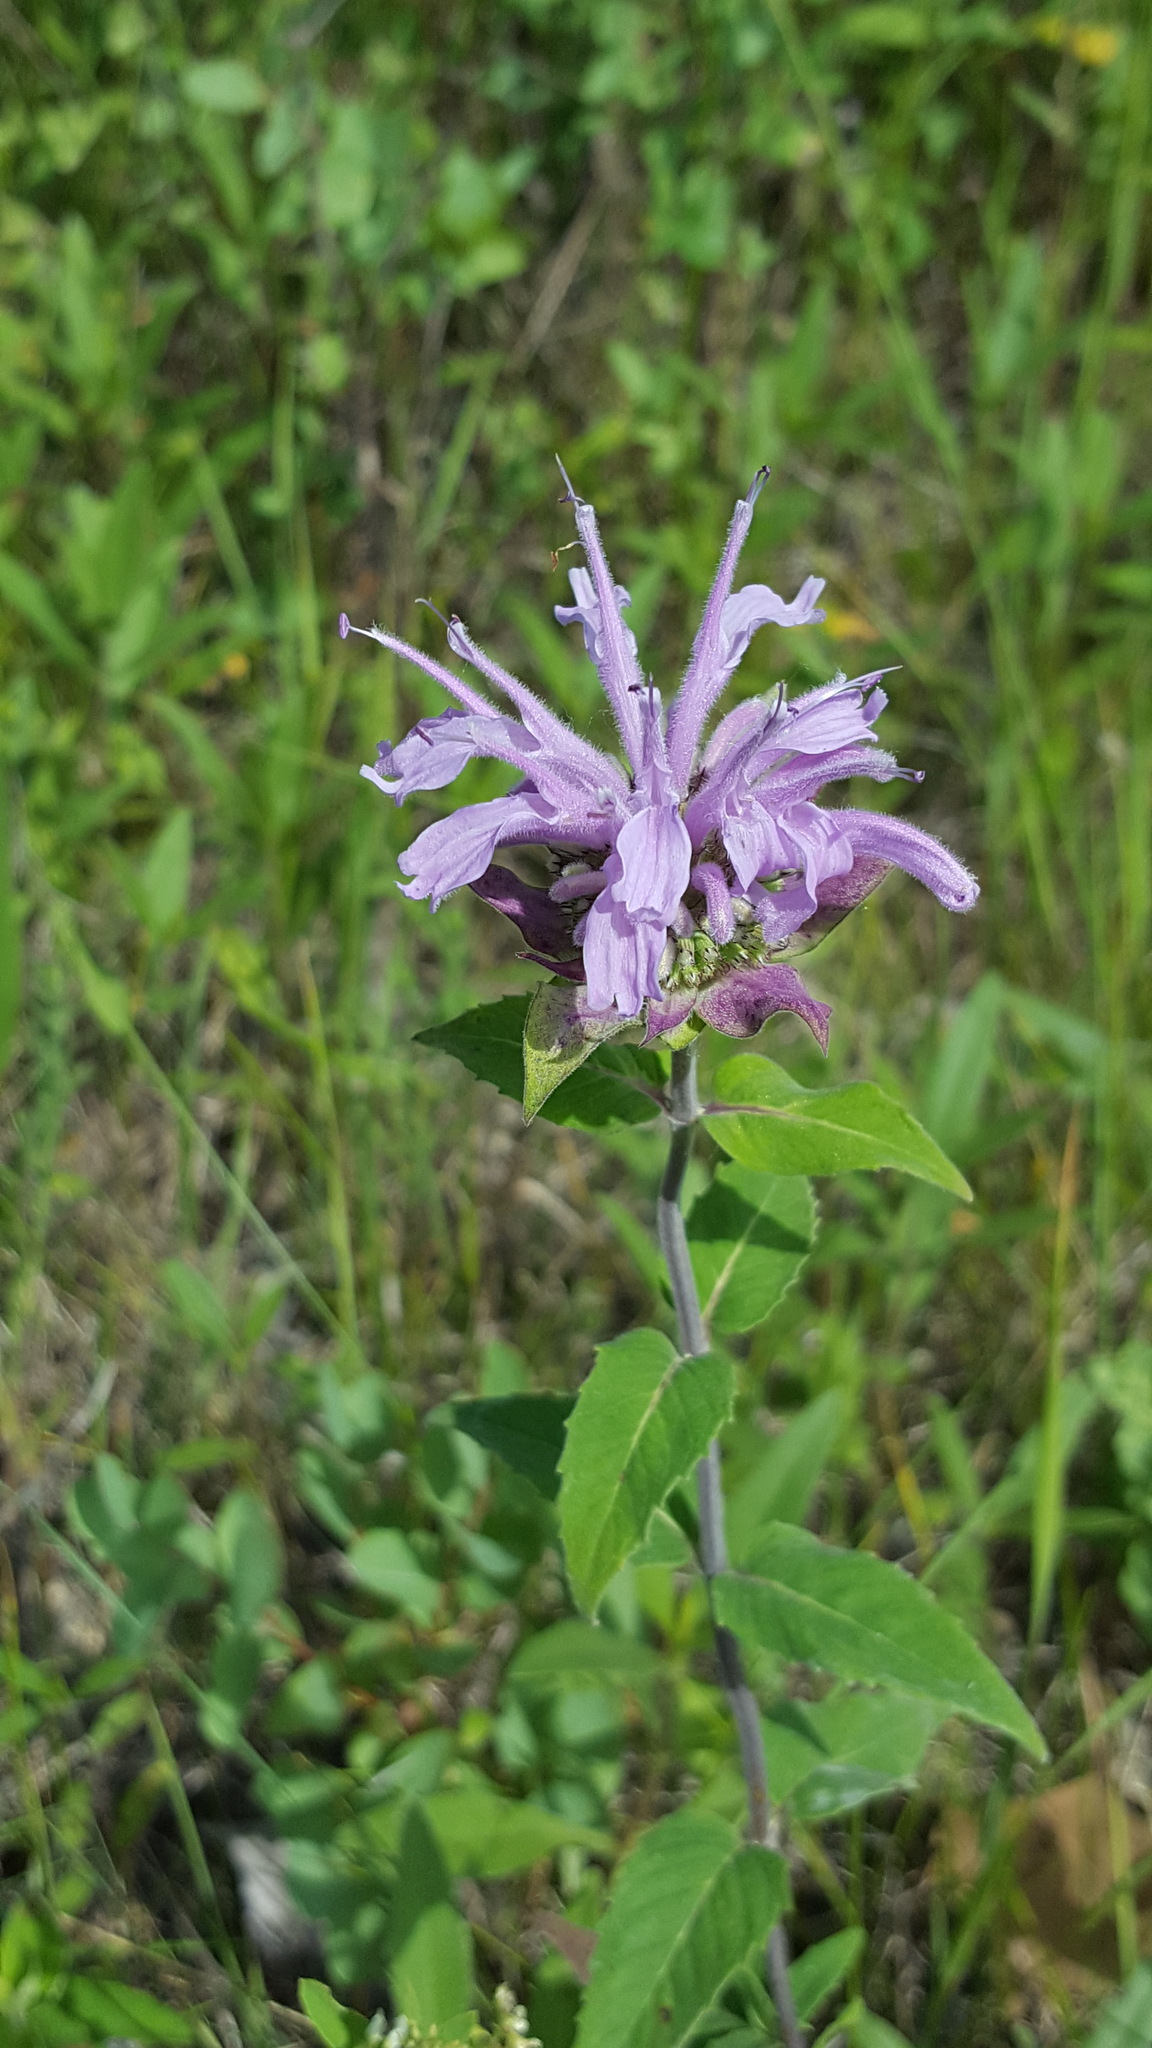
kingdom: Plantae
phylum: Tracheophyta
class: Magnoliopsida
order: Lamiales
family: Lamiaceae
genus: Monarda
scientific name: Monarda fistulosa
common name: Purple beebalm
